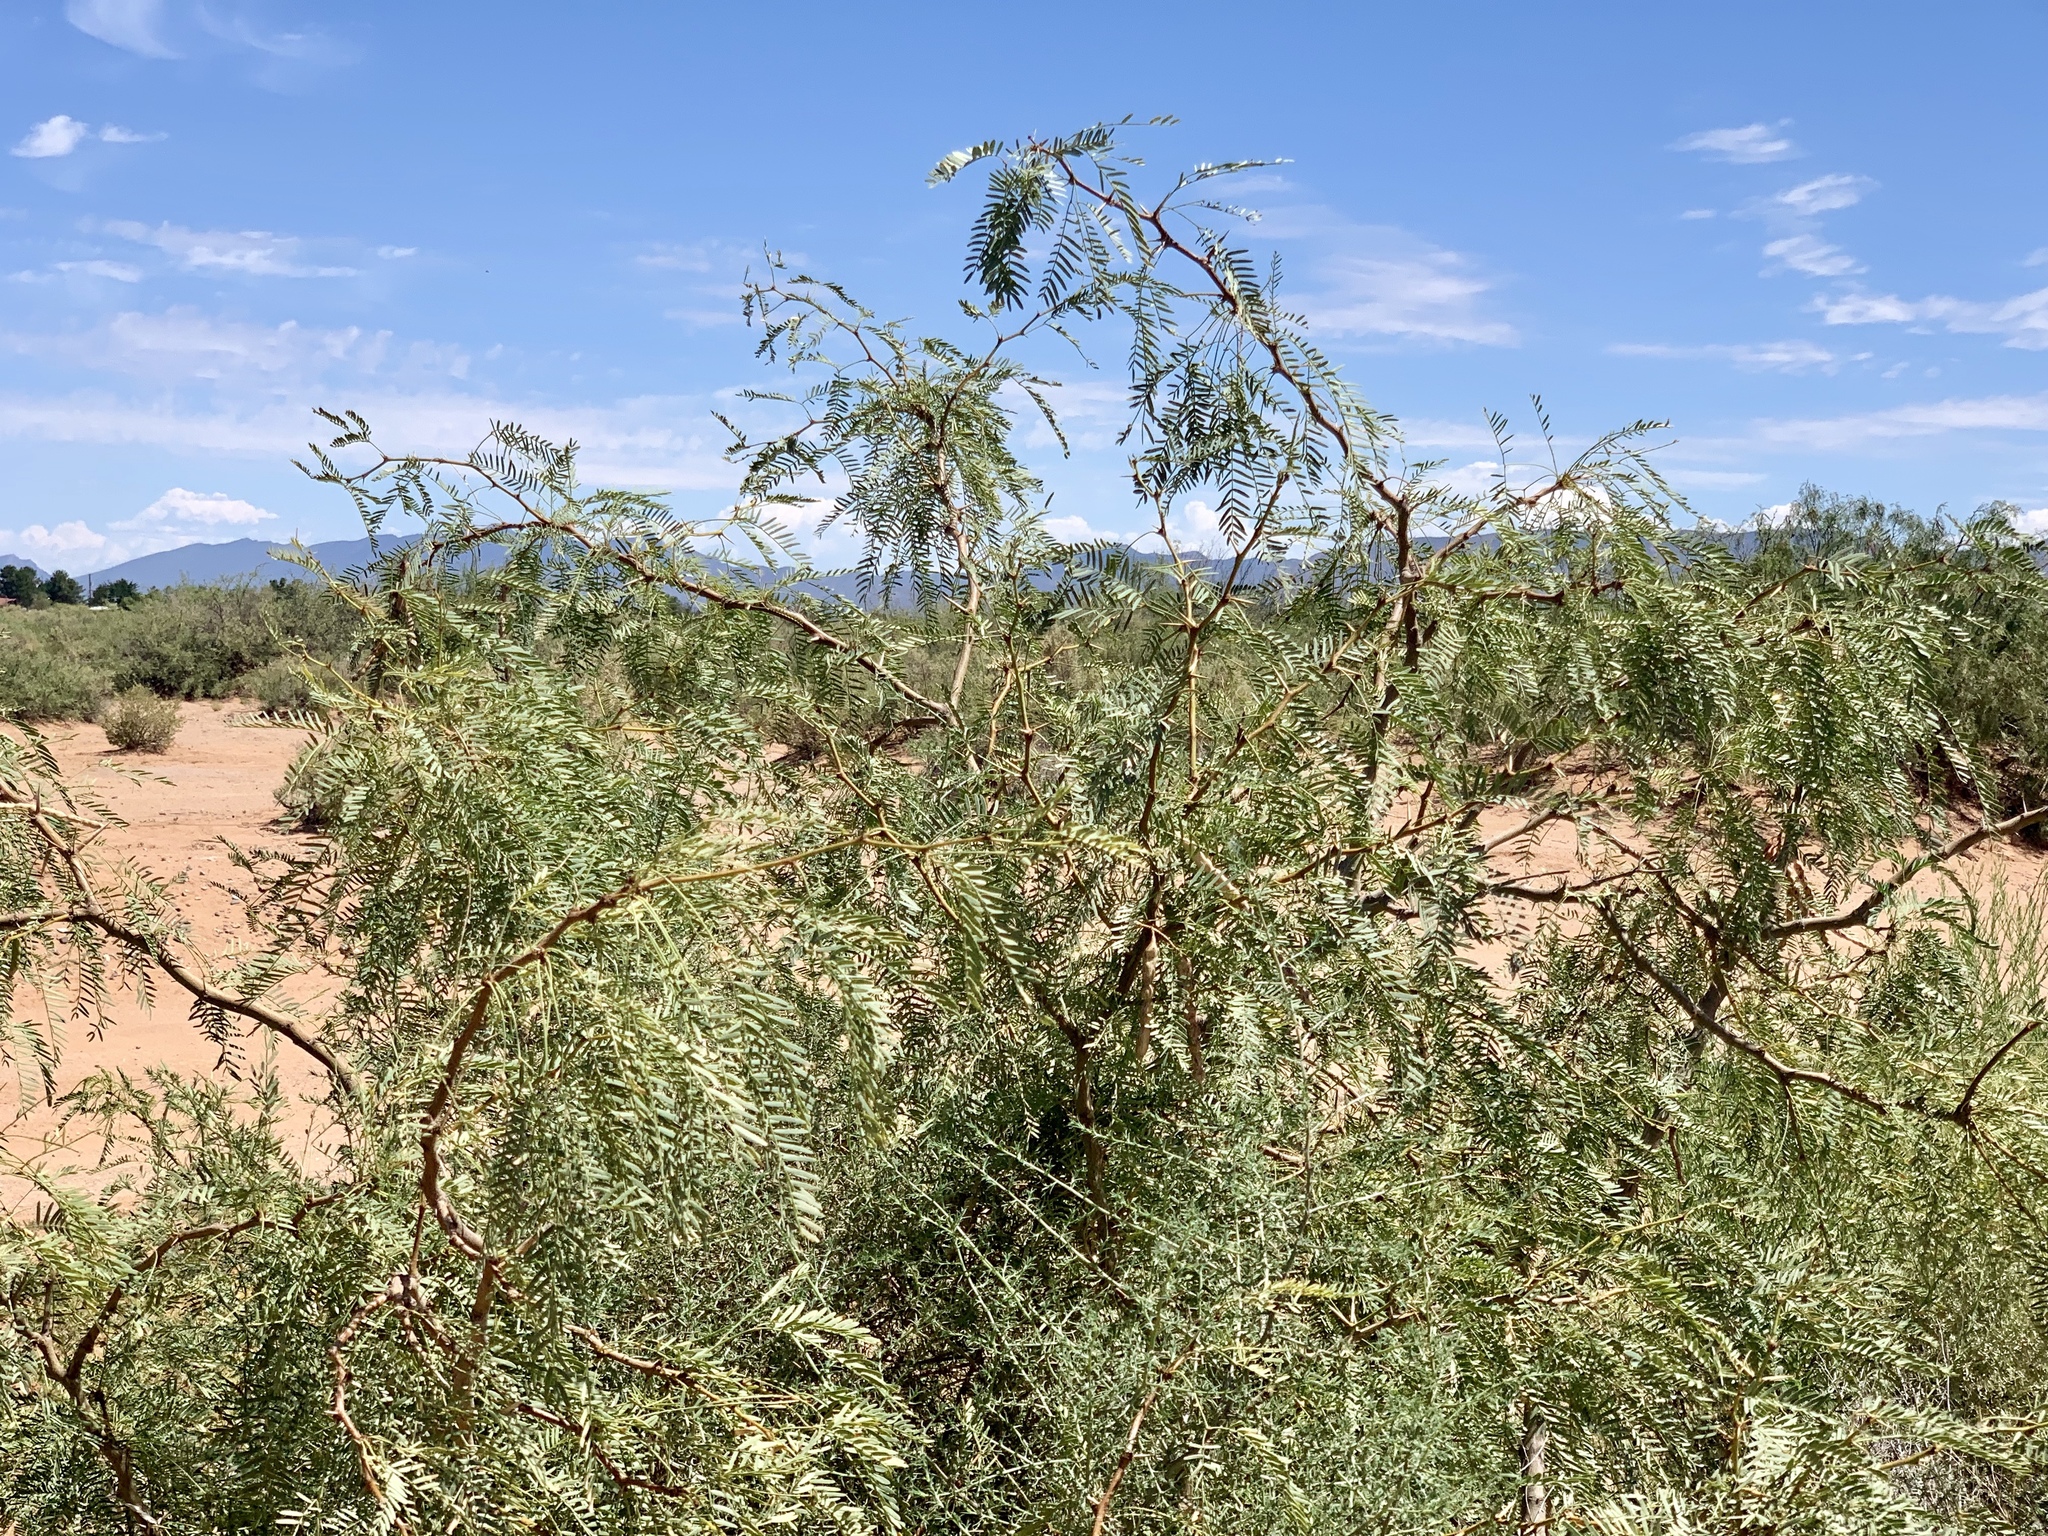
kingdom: Plantae
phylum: Tracheophyta
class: Magnoliopsida
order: Fabales
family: Fabaceae
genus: Prosopis
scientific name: Prosopis glandulosa
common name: Honey mesquite
